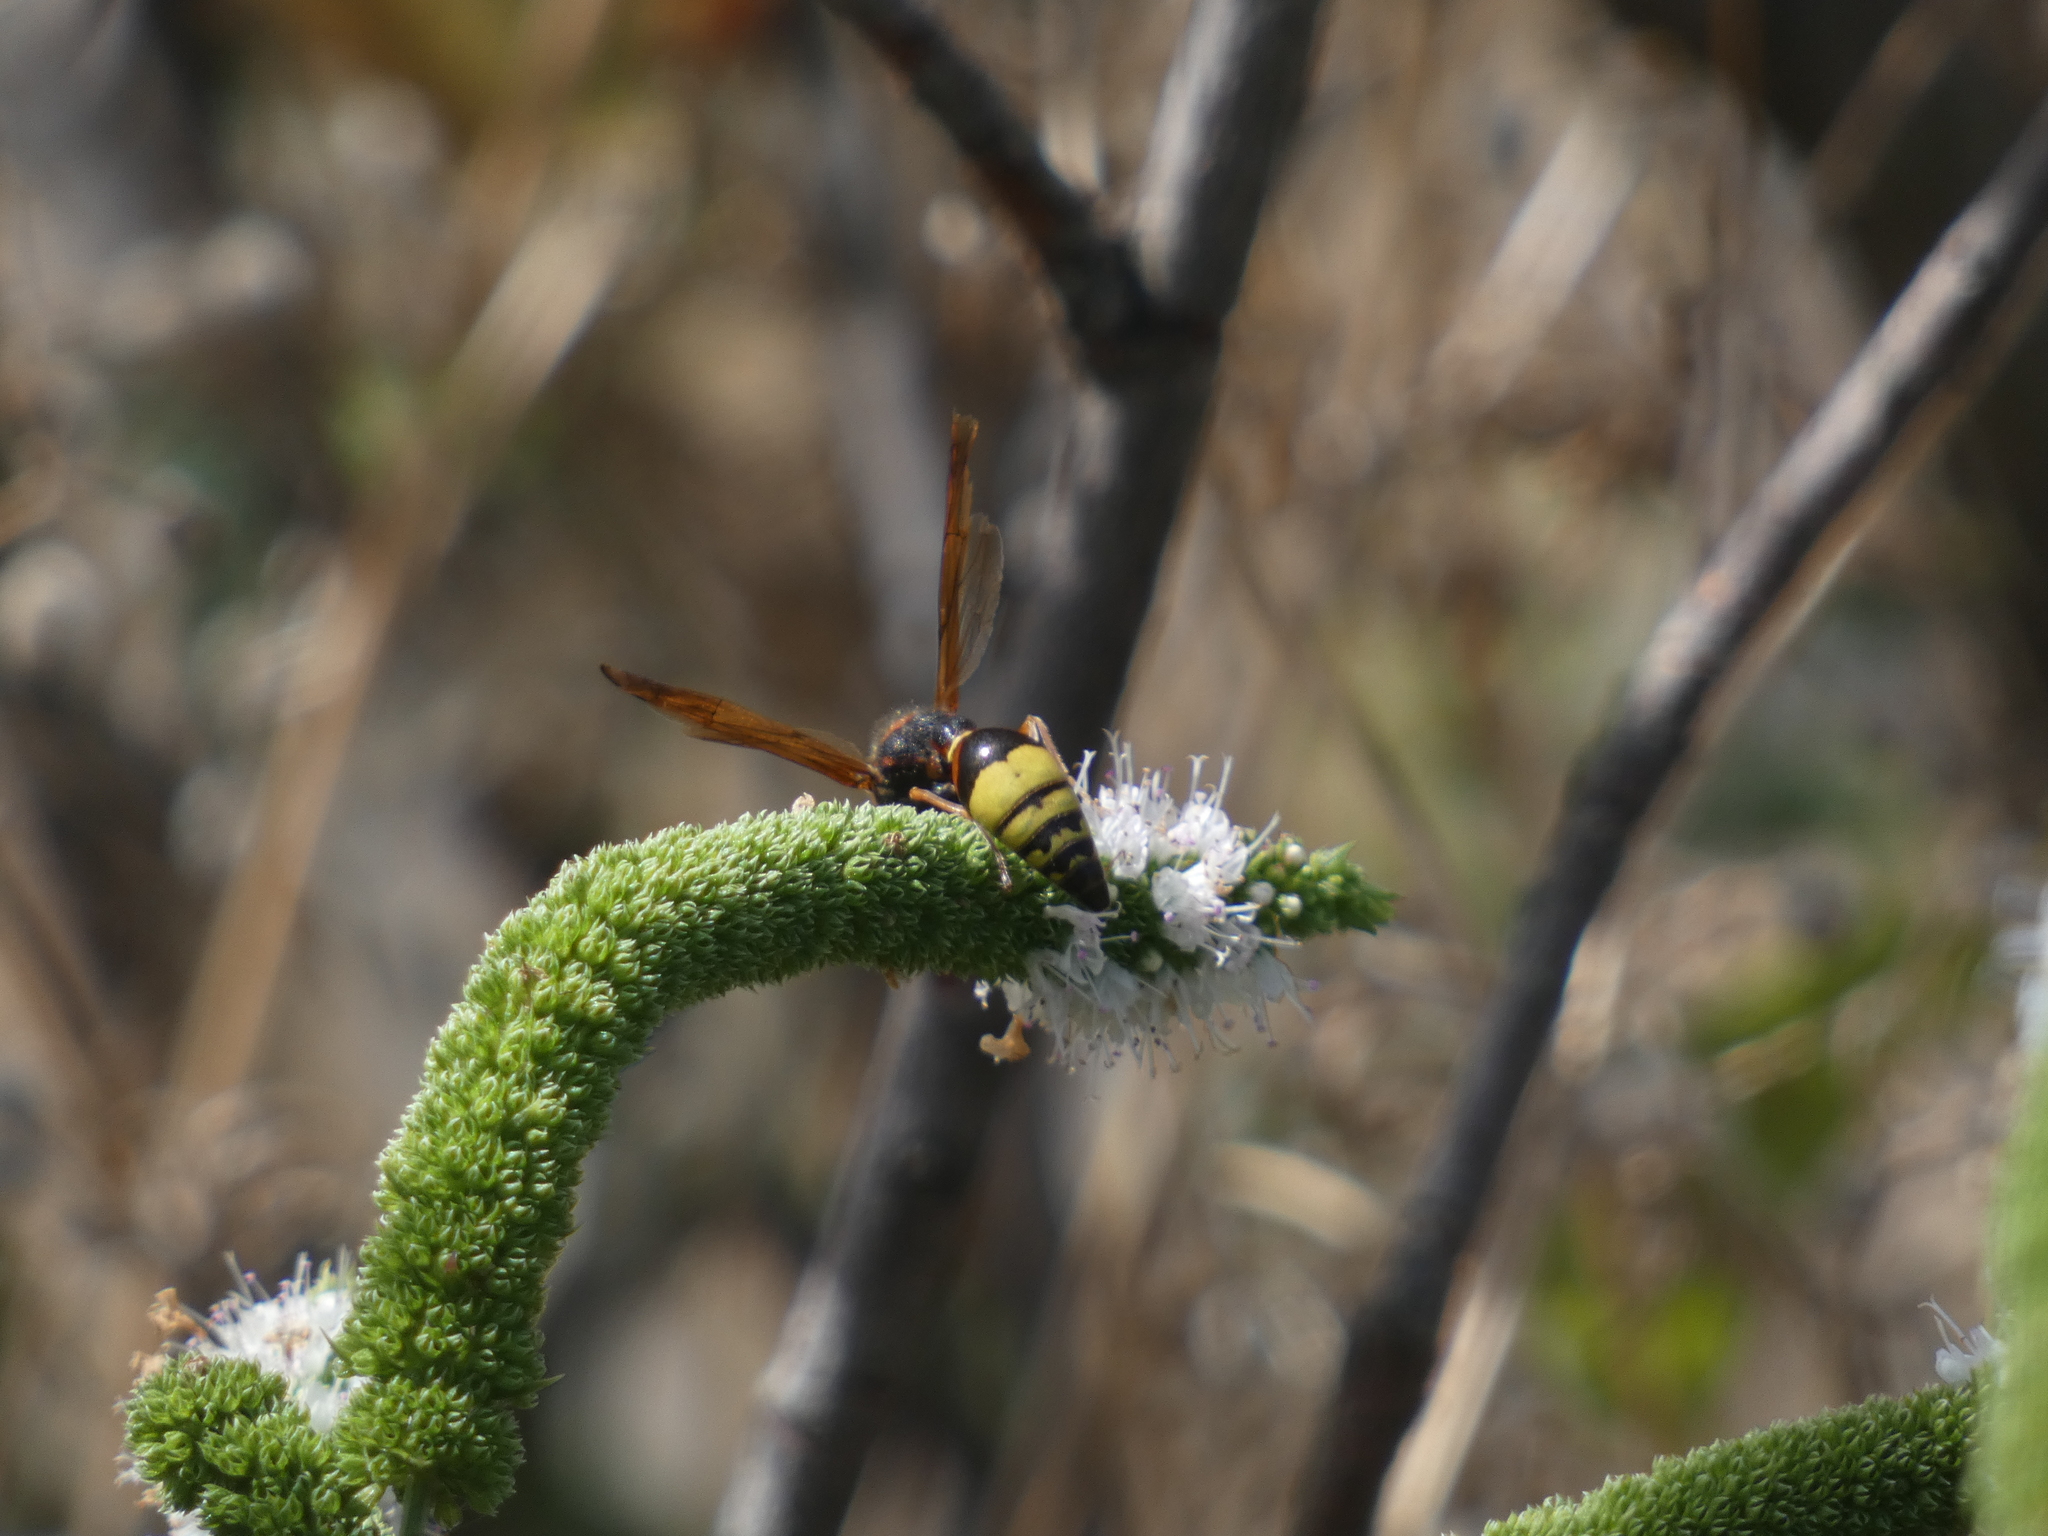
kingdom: Animalia
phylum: Arthropoda
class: Insecta
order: Hymenoptera
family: Eumenidae
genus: Delta
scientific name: Delta unguiculatum
